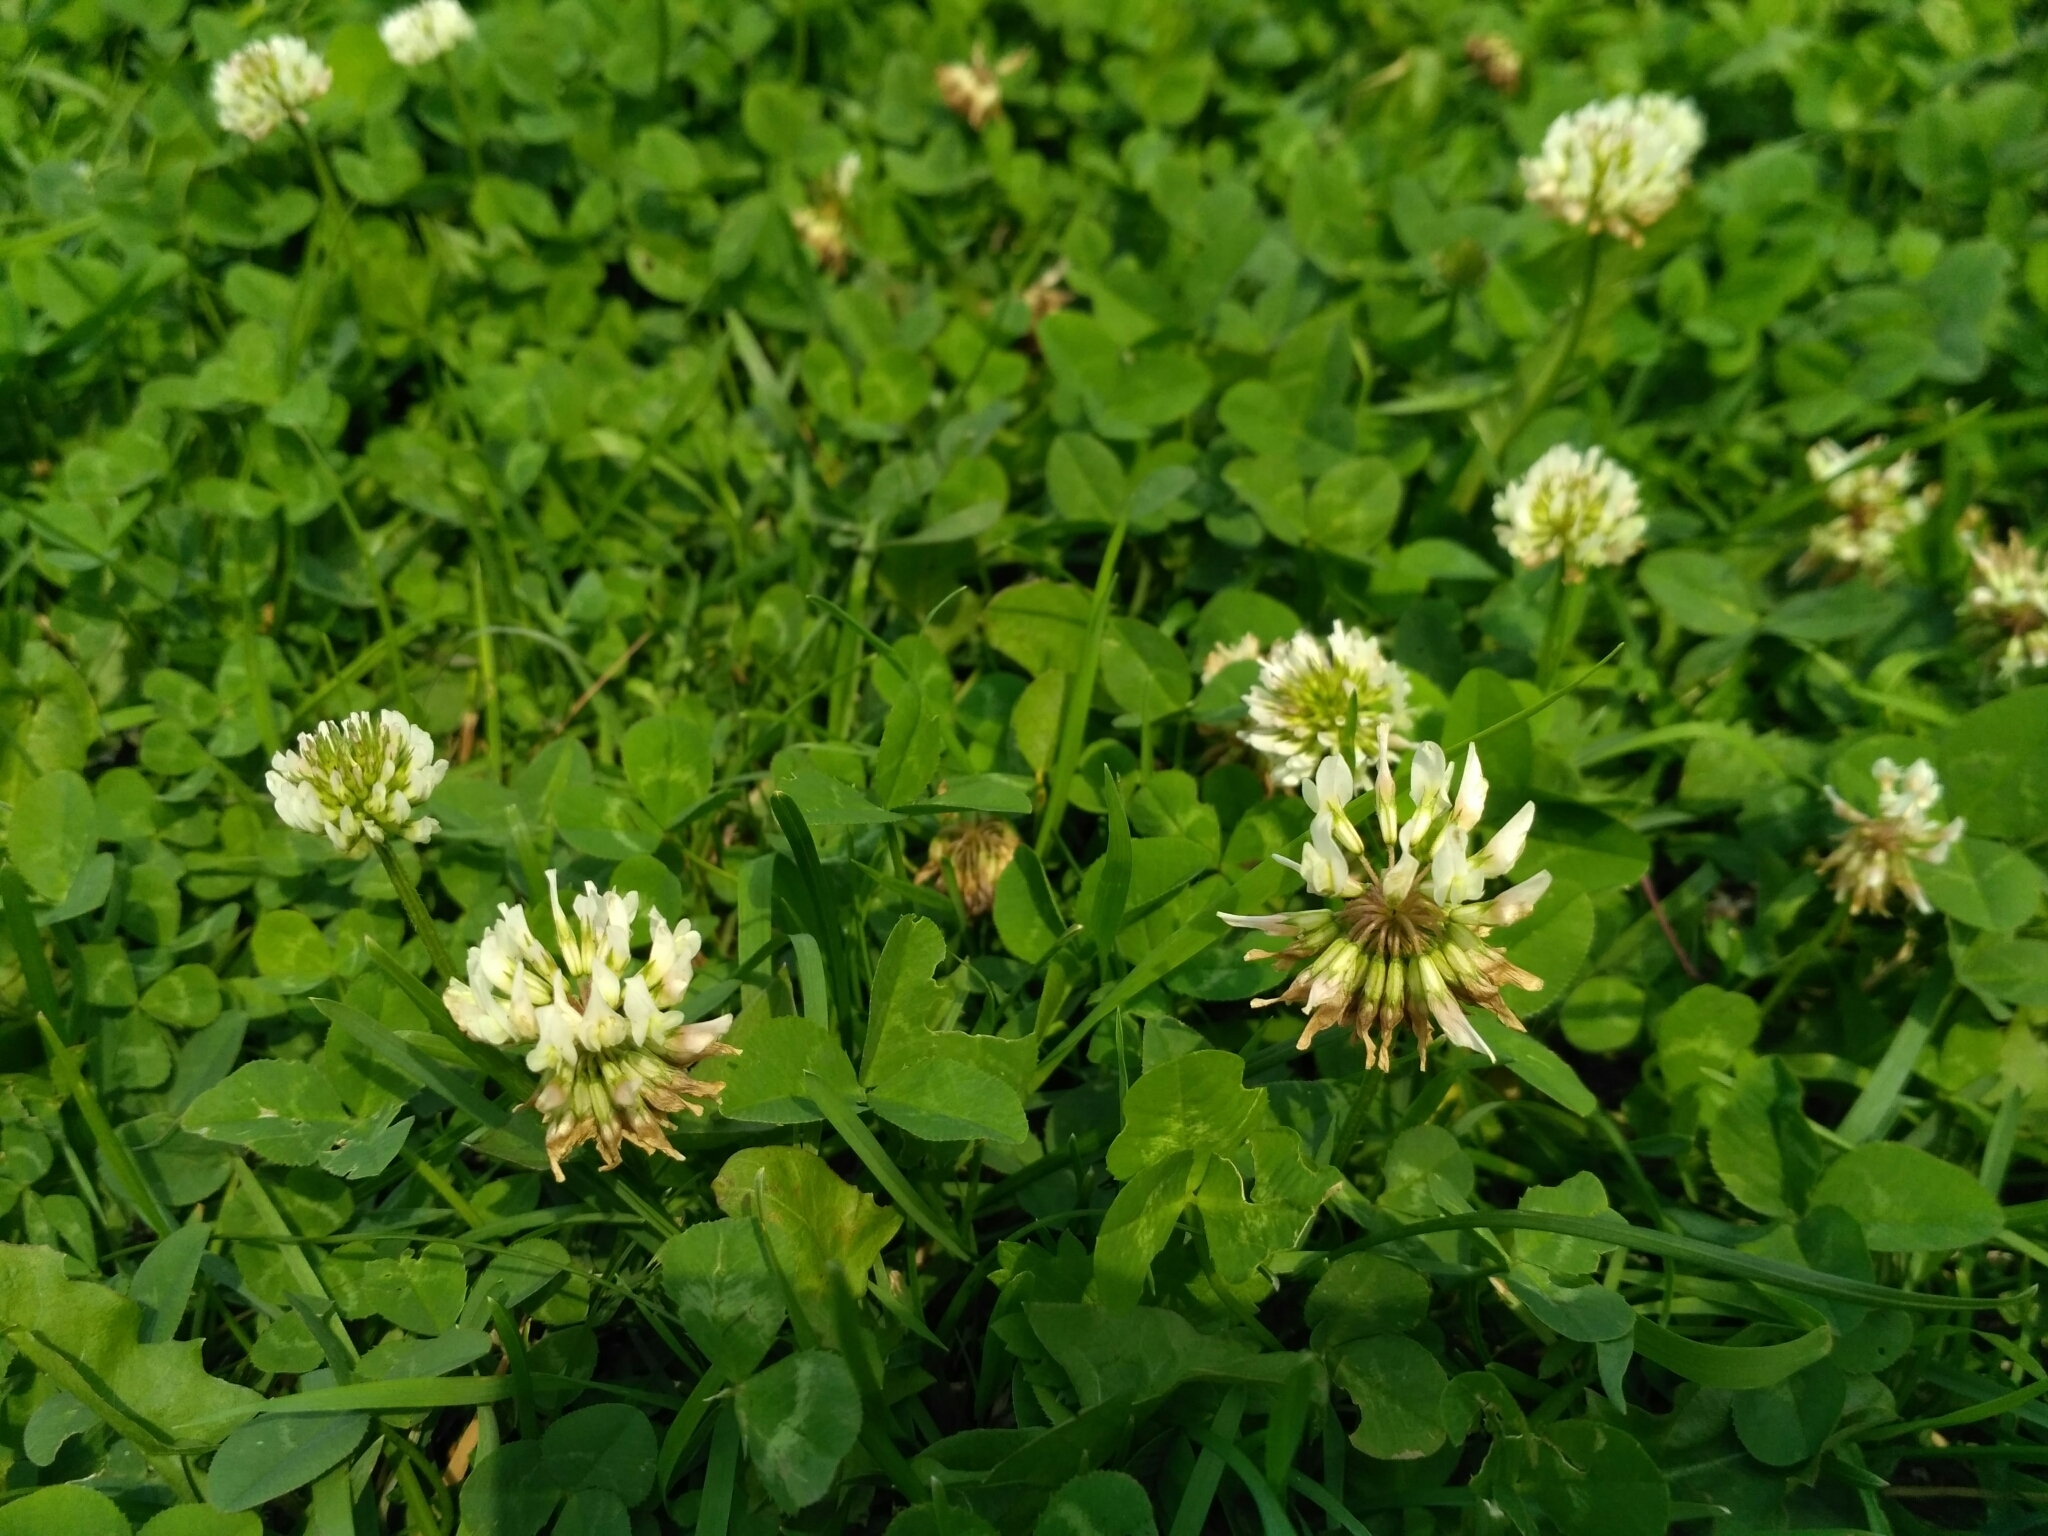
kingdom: Plantae
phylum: Tracheophyta
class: Magnoliopsida
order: Fabales
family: Fabaceae
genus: Trifolium
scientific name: Trifolium repens
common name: White clover
